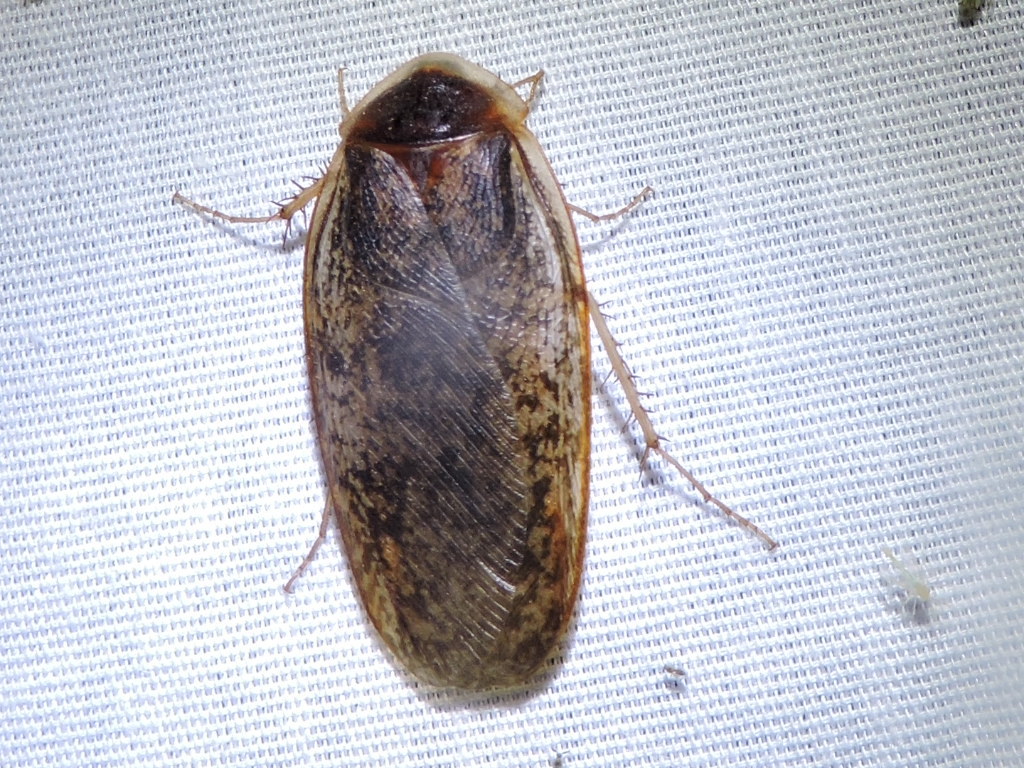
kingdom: Animalia
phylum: Arthropoda
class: Insecta
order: Blattodea
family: Corydiidae
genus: Arenivaga
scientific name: Arenivaga bolliana
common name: Boll's sand cockroach
